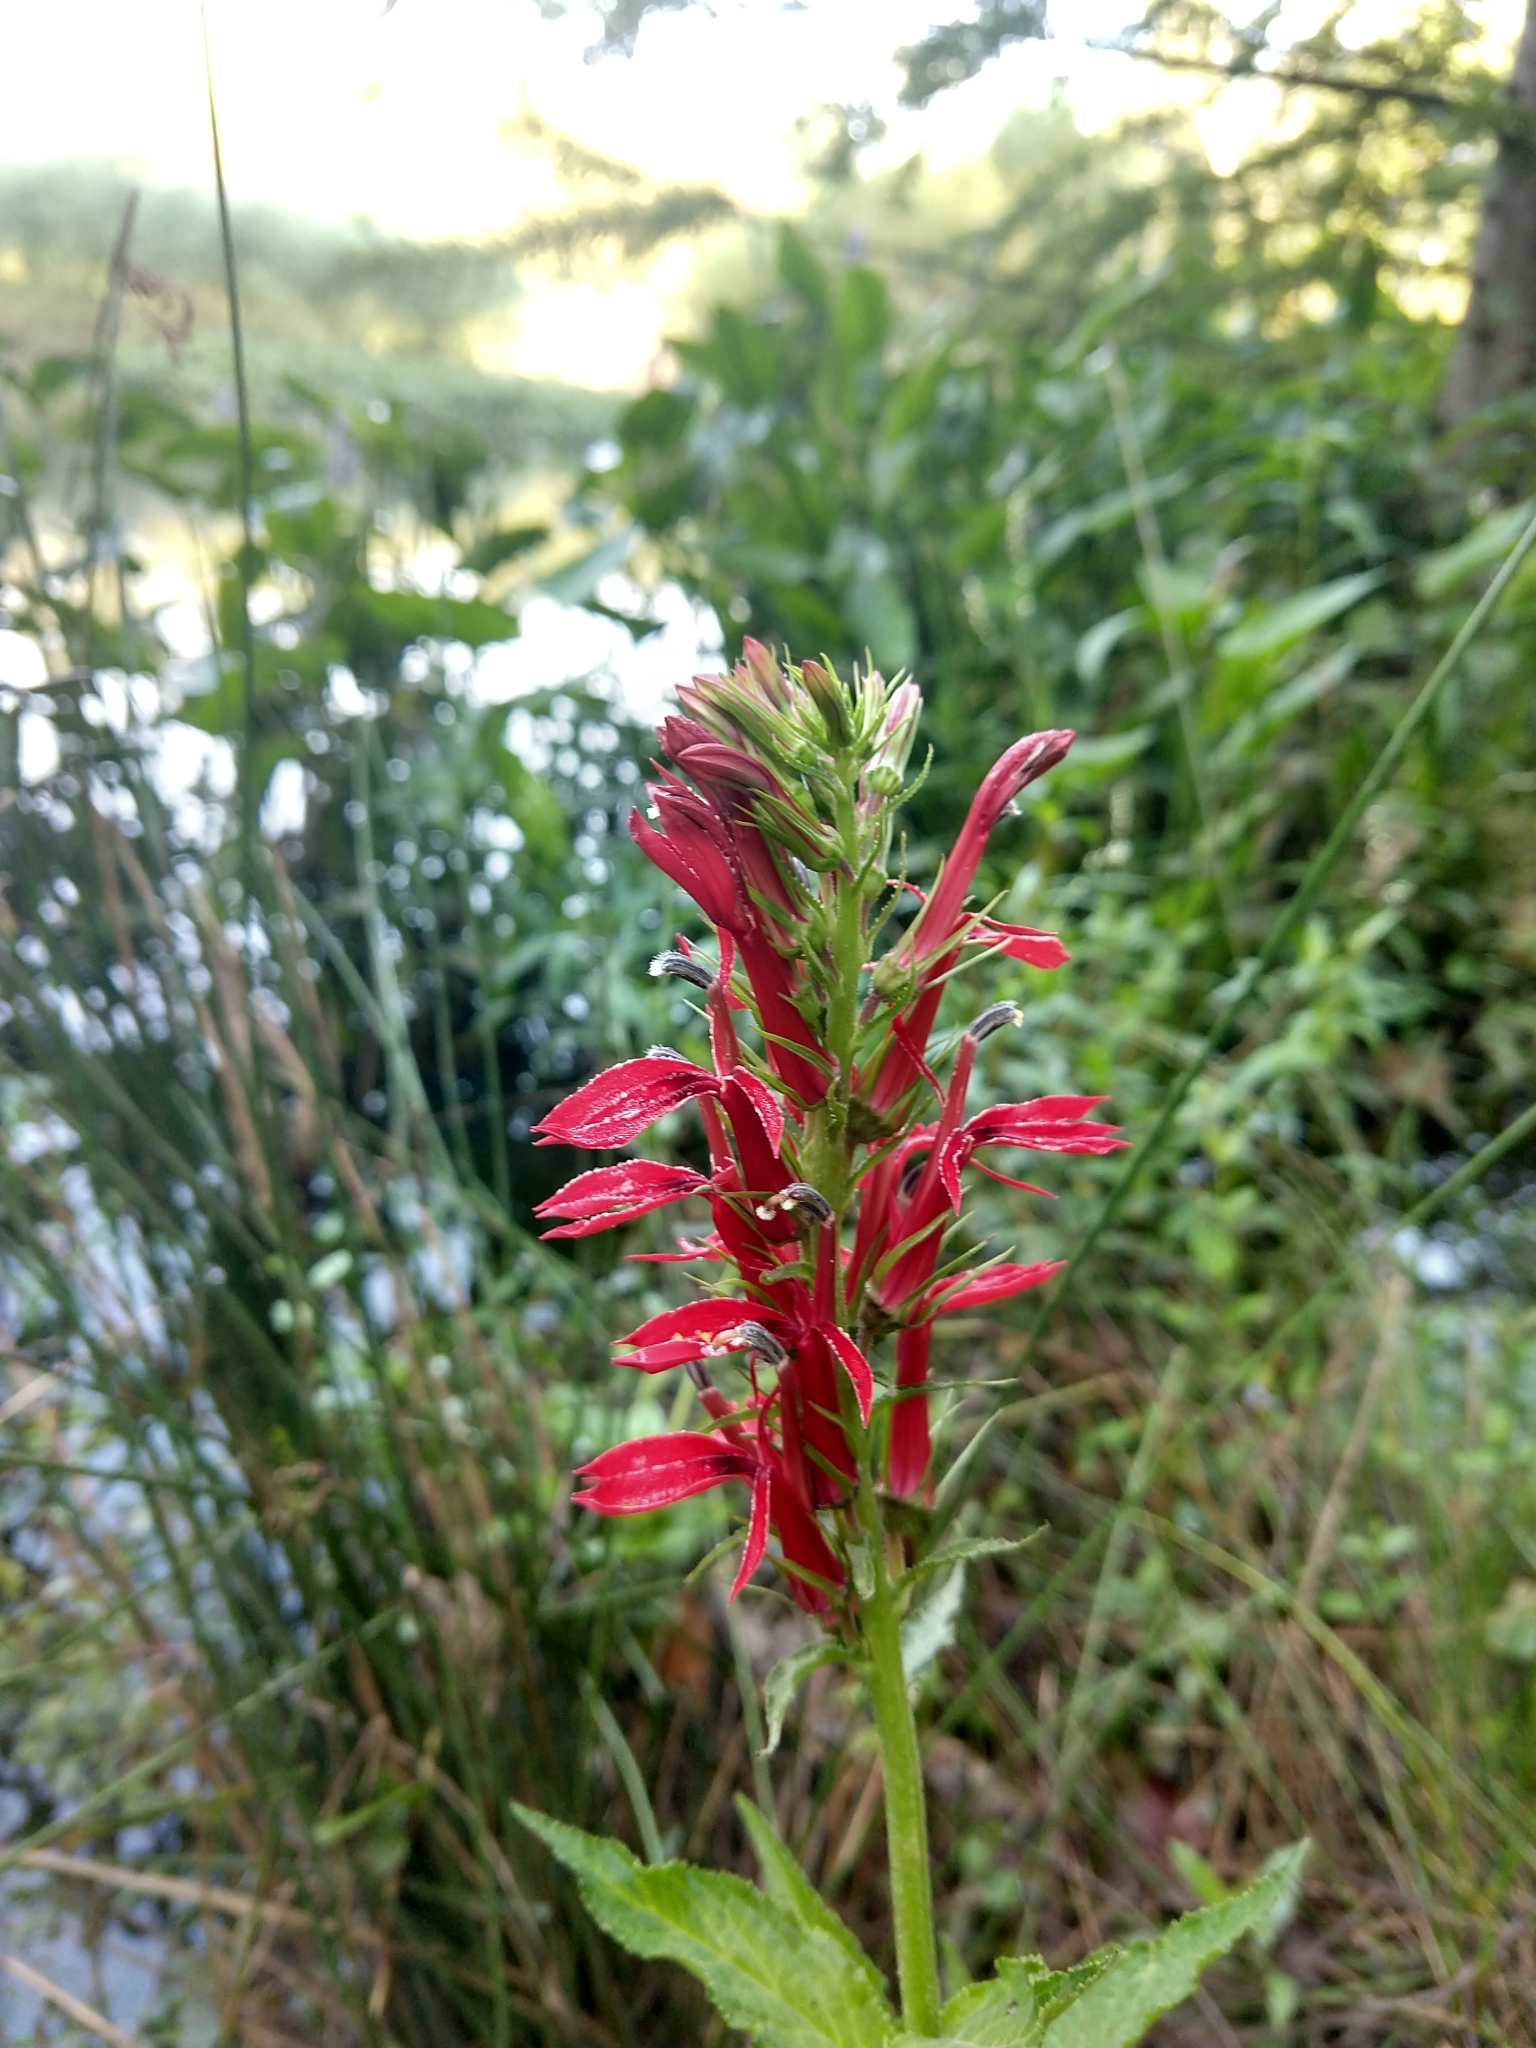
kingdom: Plantae
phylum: Tracheophyta
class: Magnoliopsida
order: Asterales
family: Campanulaceae
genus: Lobelia
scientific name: Lobelia cardinalis
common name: Cardinal flower
